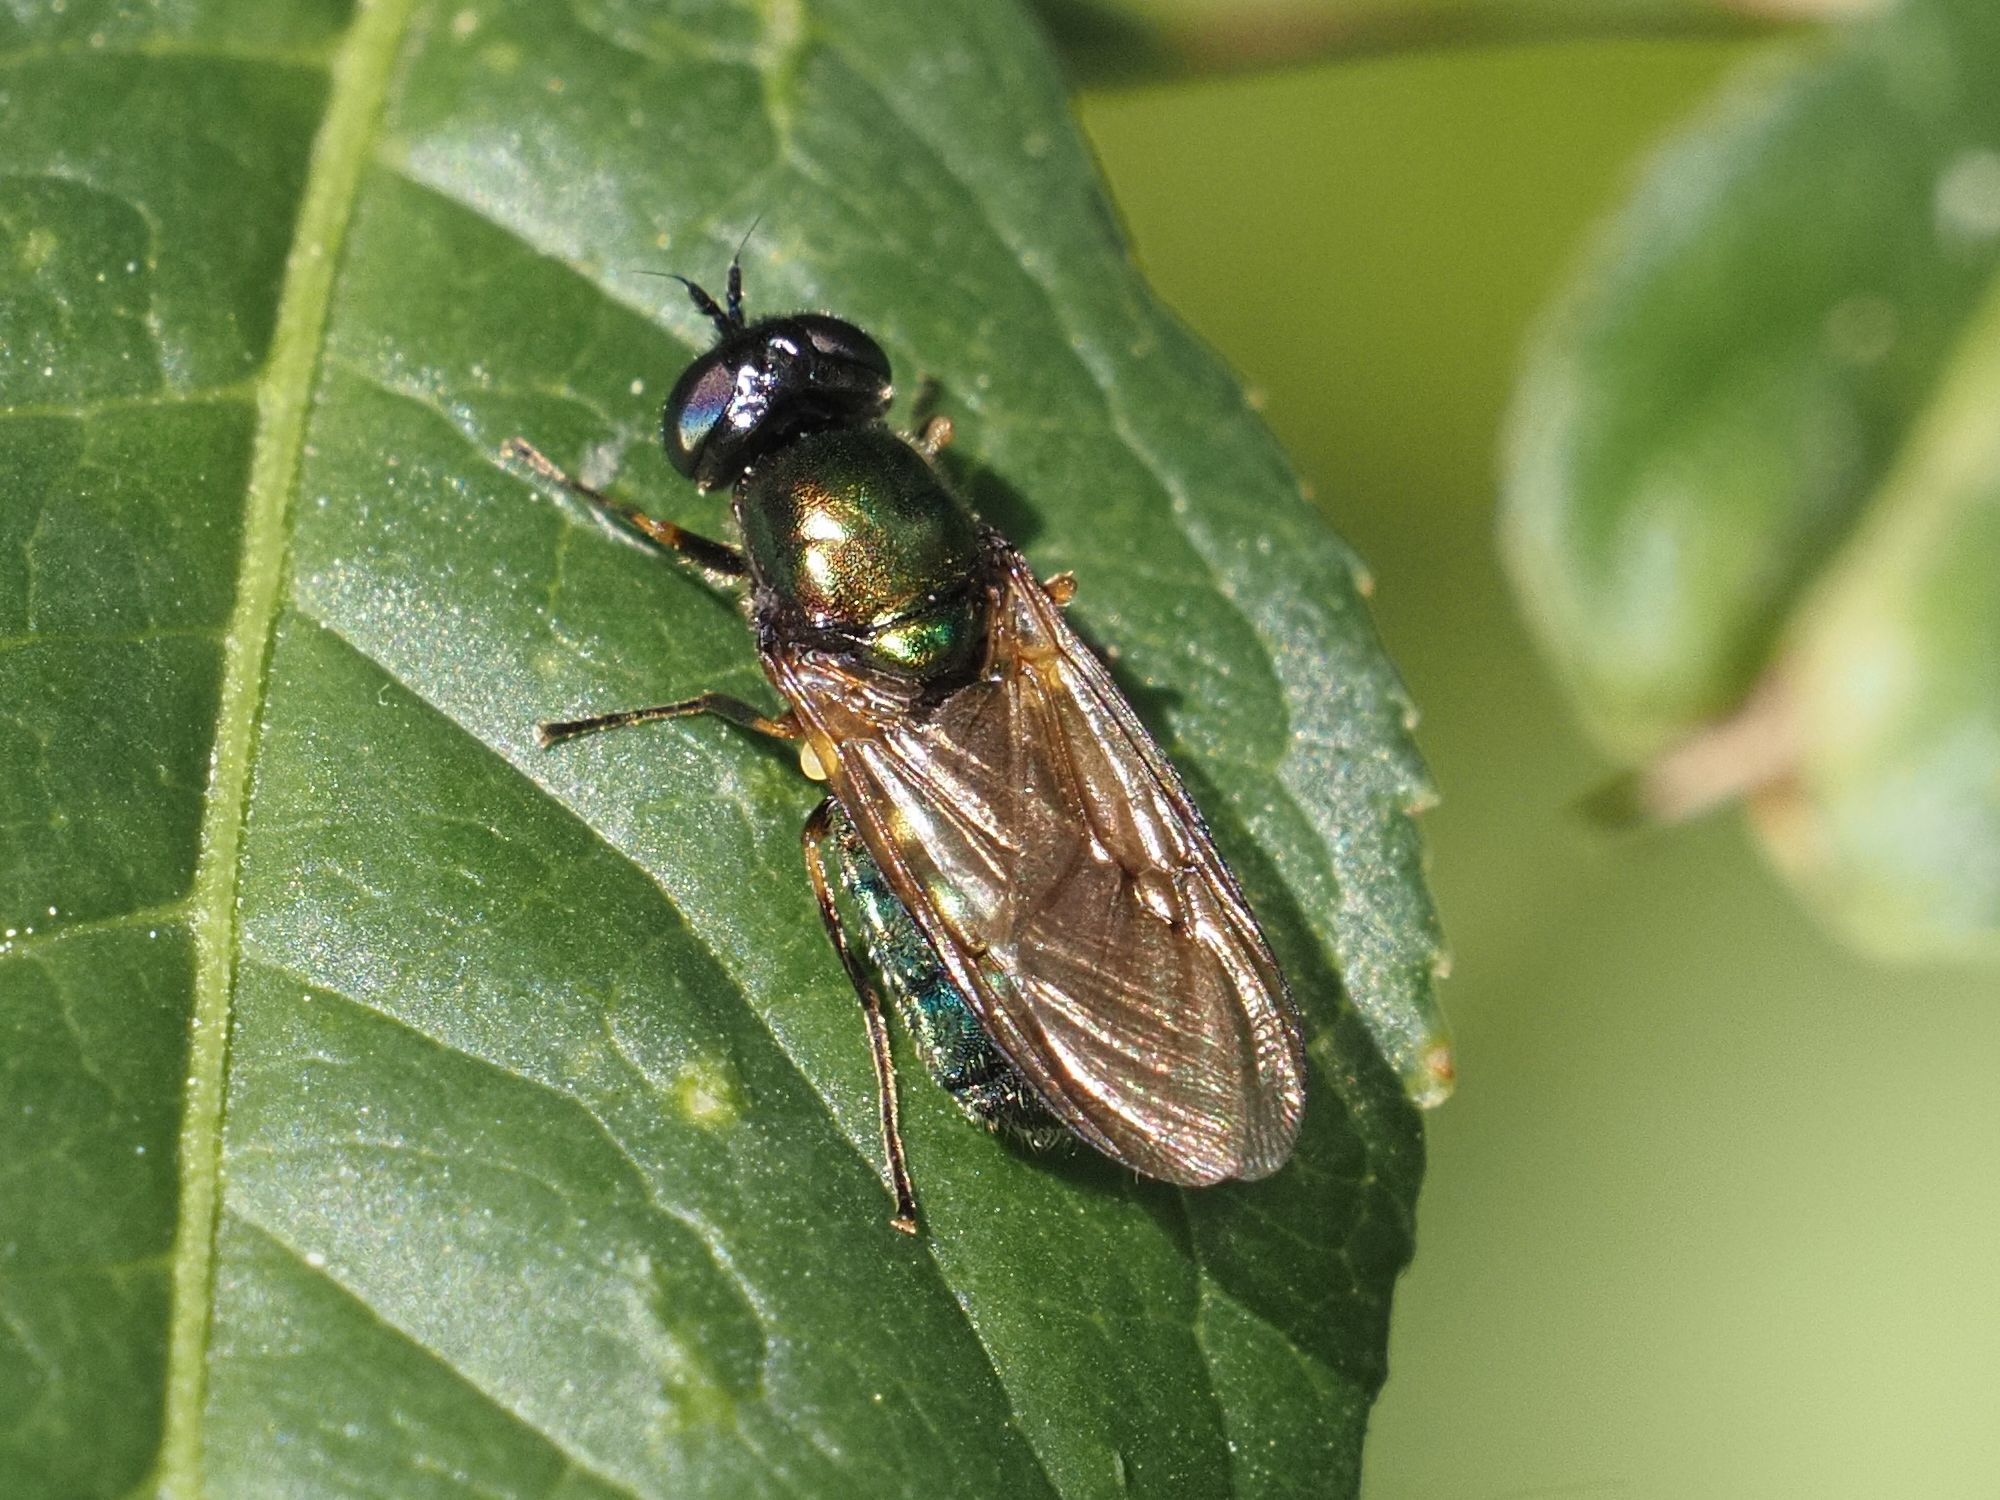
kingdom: Animalia
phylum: Arthropoda
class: Insecta
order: Diptera
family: Stratiomyidae
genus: Chloromyia
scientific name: Chloromyia formosa
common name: Soldier fly
